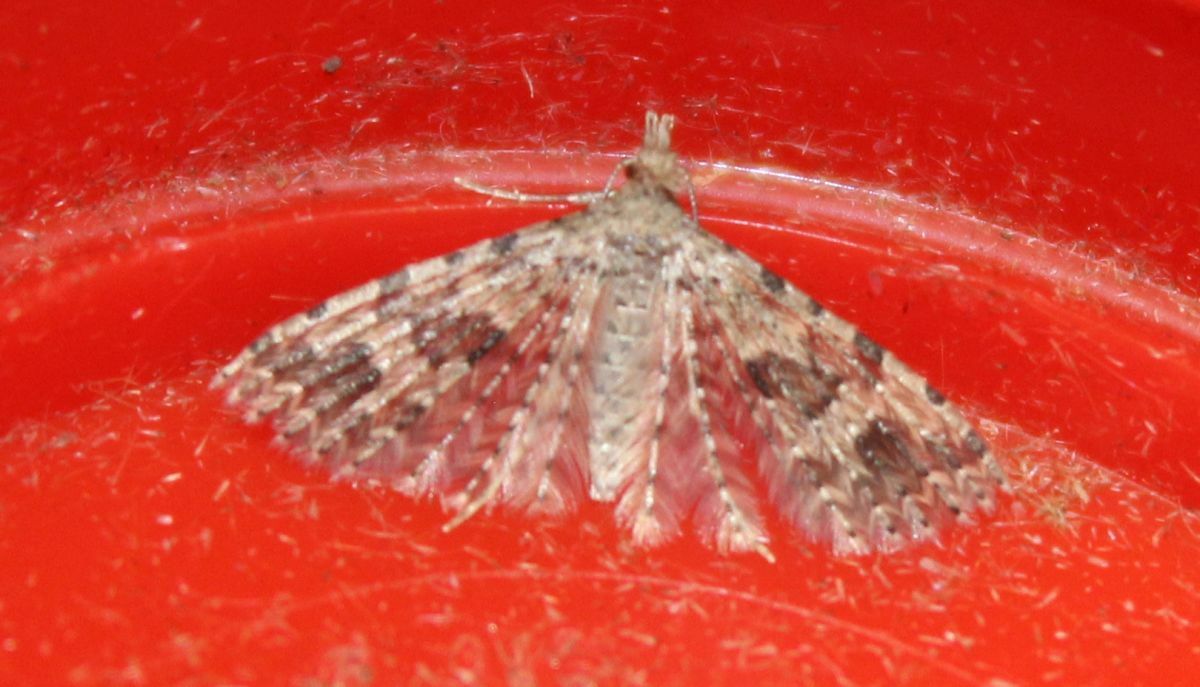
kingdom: Animalia
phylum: Arthropoda
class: Insecta
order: Lepidoptera
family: Alucitidae
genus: Alucita
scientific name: Alucita hexadactyla
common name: Twenty-plume moth
